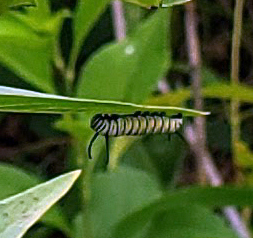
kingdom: Animalia
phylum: Arthropoda
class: Insecta
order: Lepidoptera
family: Nymphalidae
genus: Danaus
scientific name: Danaus plexippus
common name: Monarch
